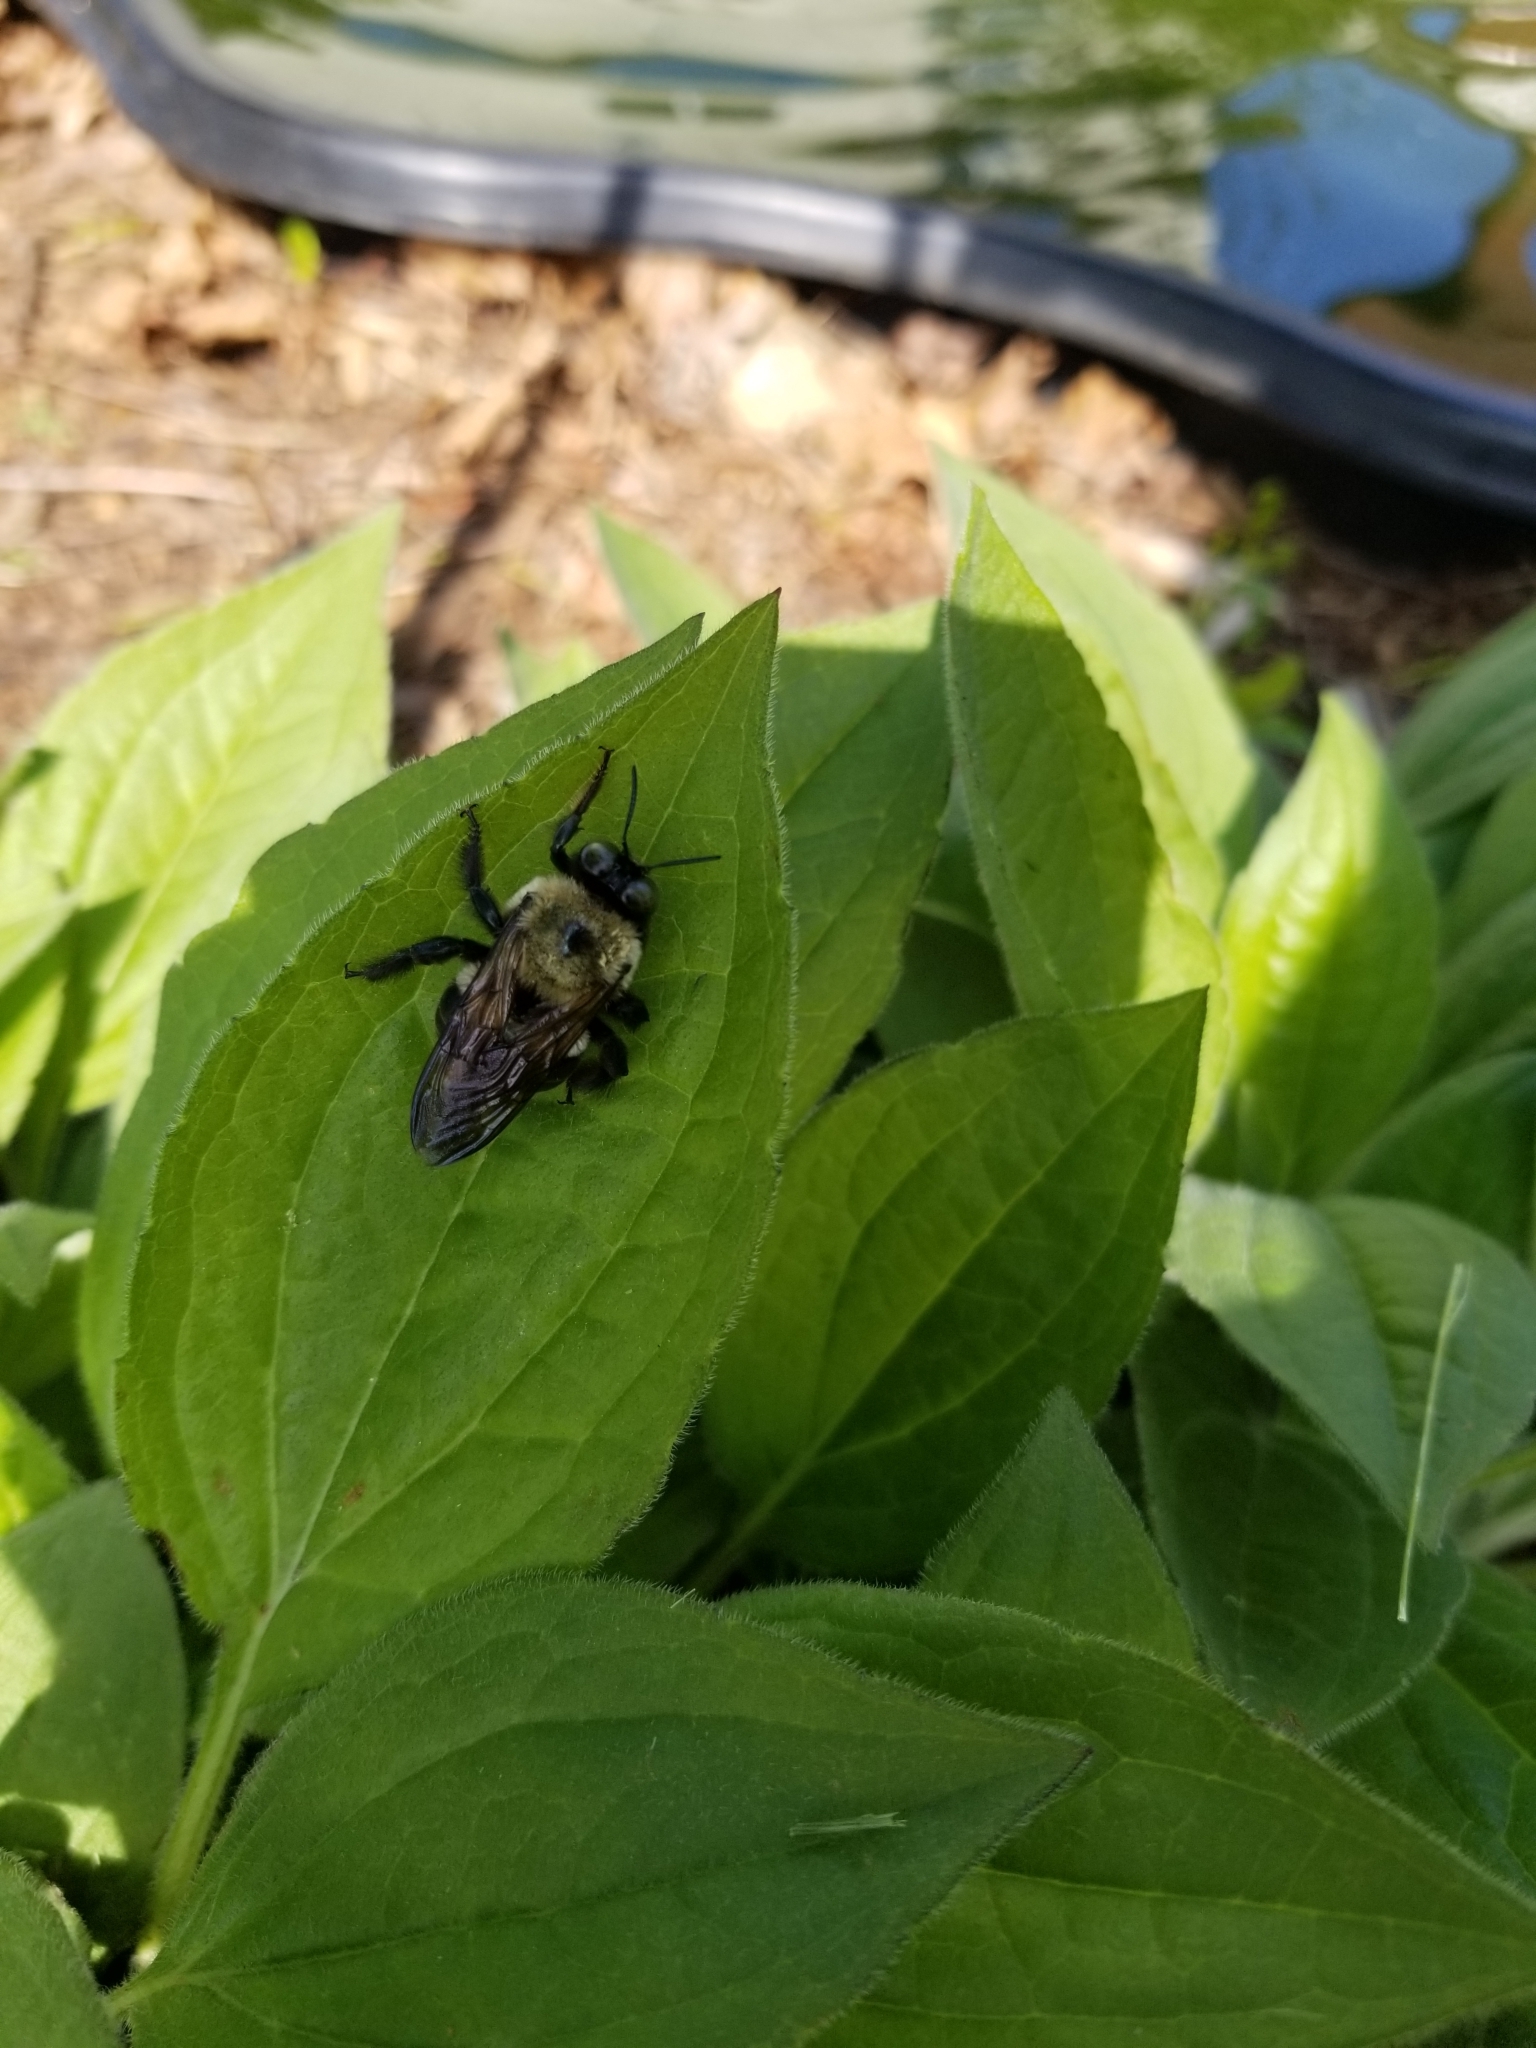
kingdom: Animalia
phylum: Arthropoda
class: Insecta
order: Hymenoptera
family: Apidae
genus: Xylocopa
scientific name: Xylocopa virginica
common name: Carpenter bee
